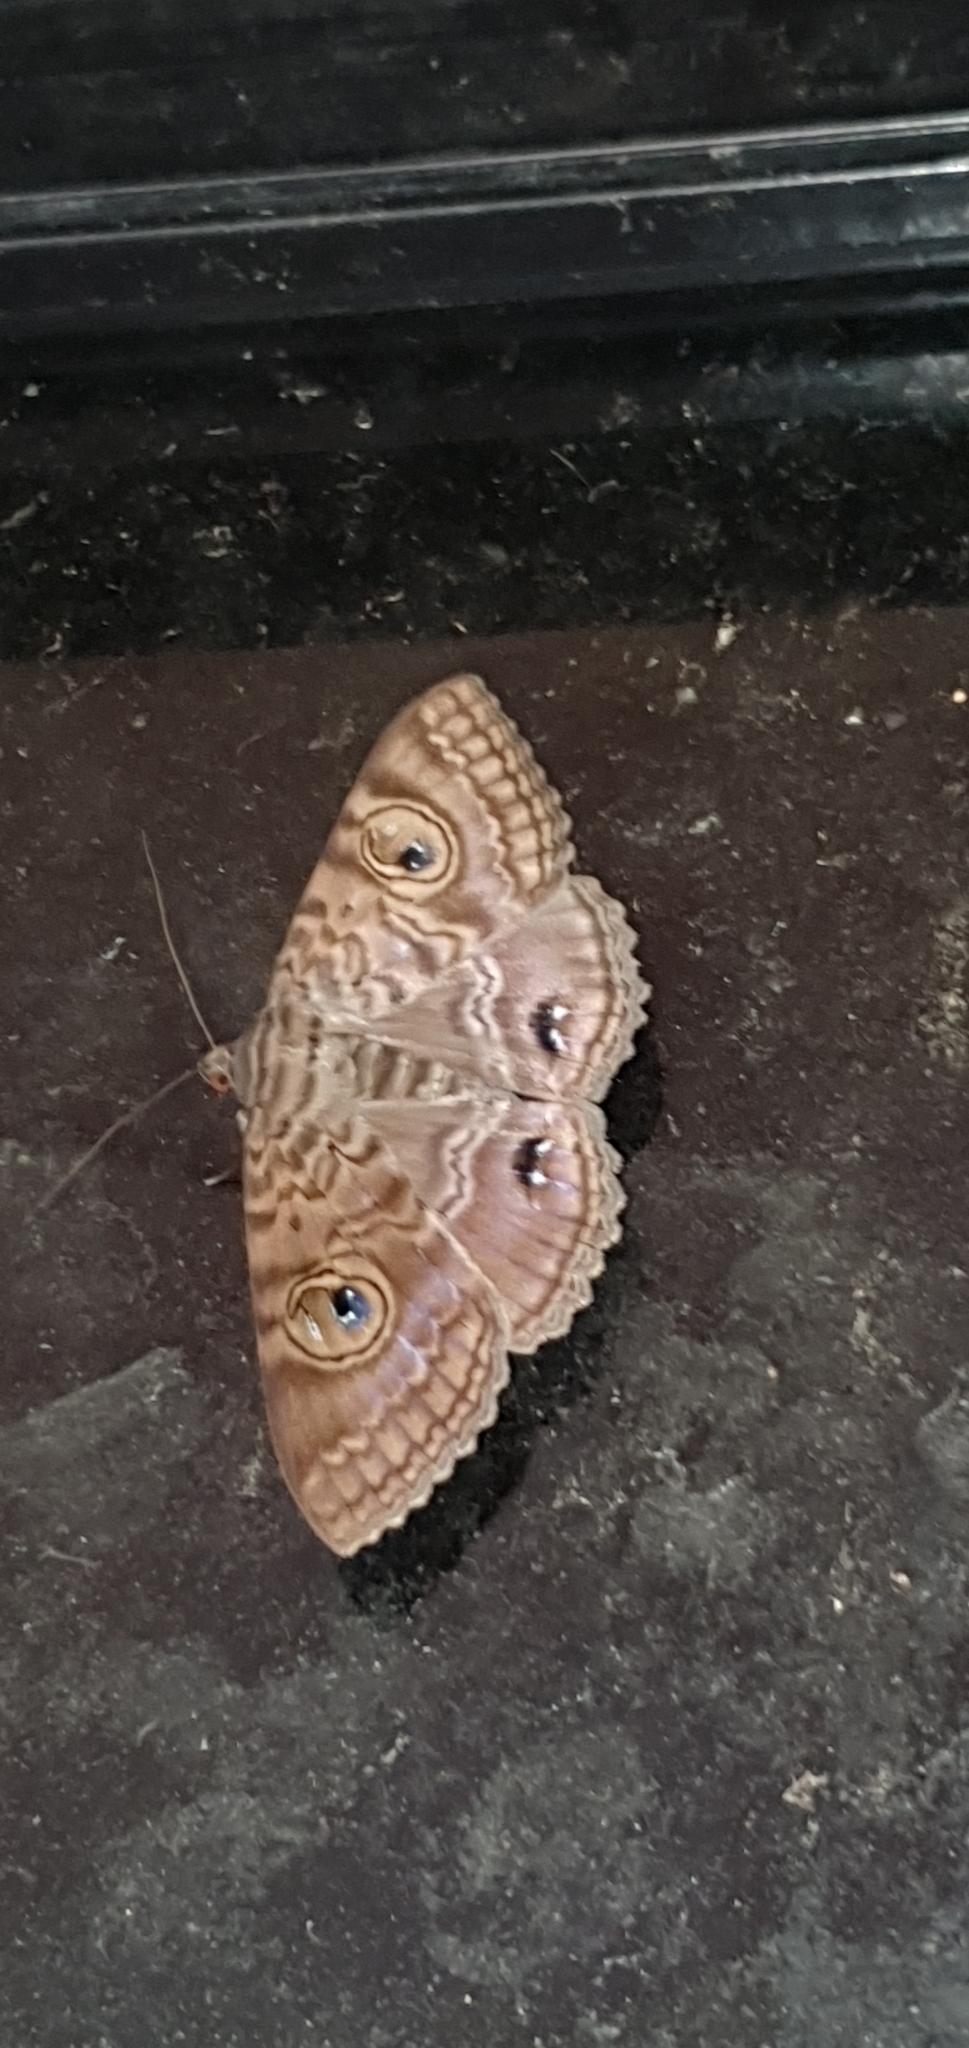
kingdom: Animalia
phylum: Arthropoda
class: Insecta
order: Lepidoptera
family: Erebidae
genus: Speiredonia
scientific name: Speiredonia spectans
